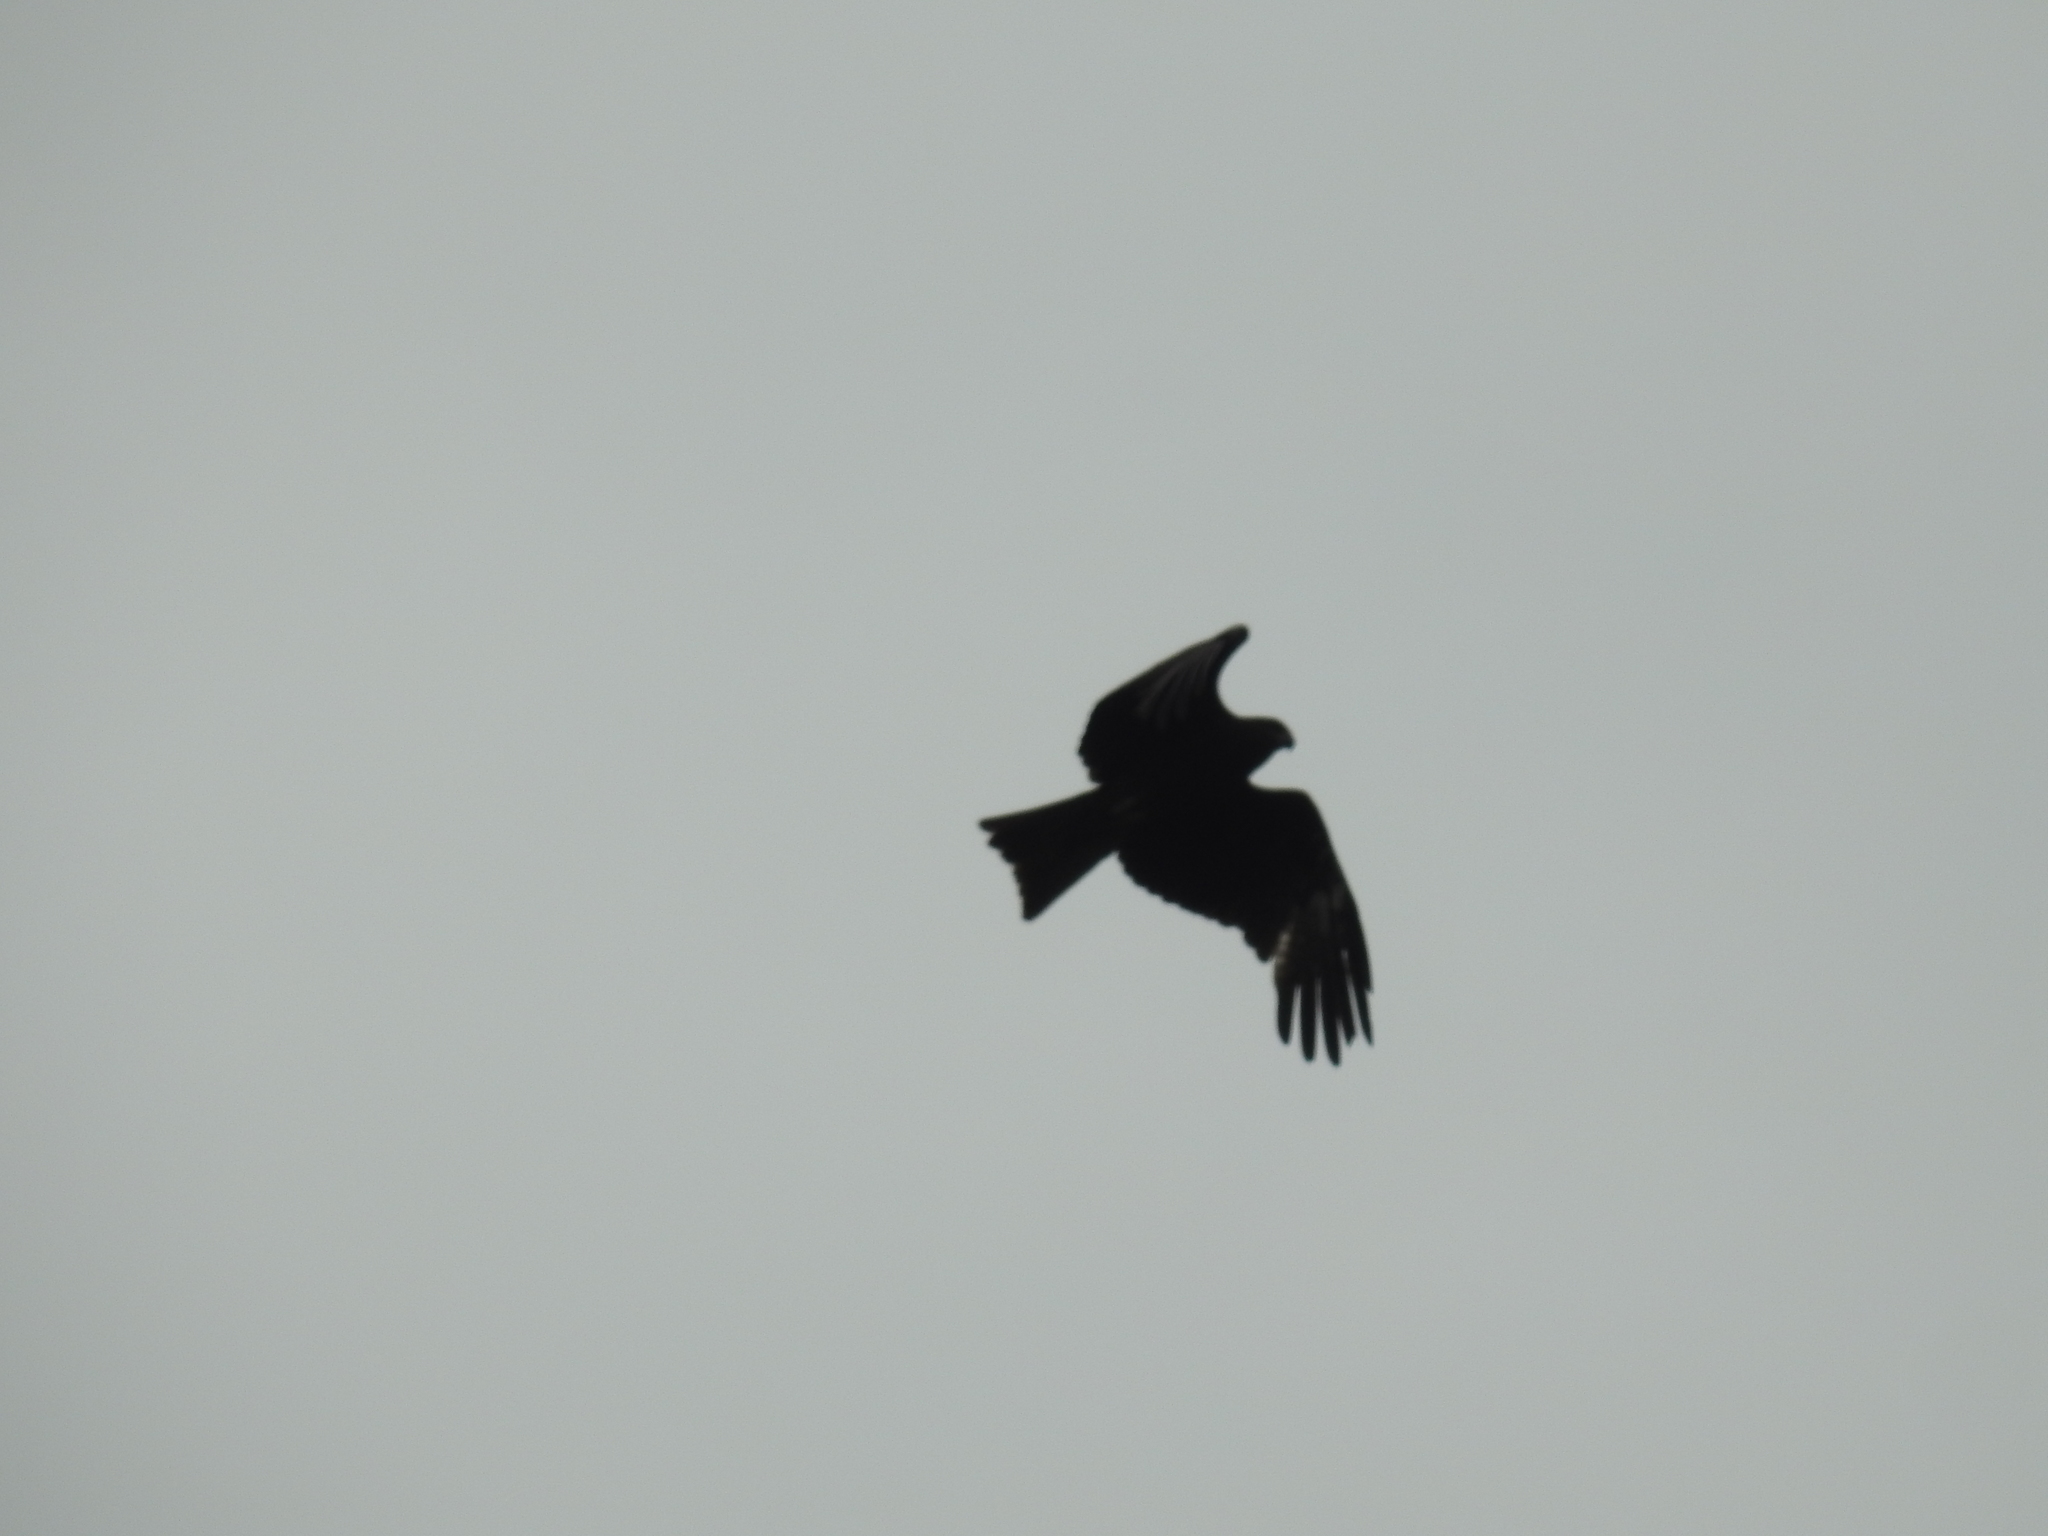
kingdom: Animalia
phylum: Chordata
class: Aves
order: Accipitriformes
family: Accipitridae
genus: Milvus
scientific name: Milvus migrans
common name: Black kite
